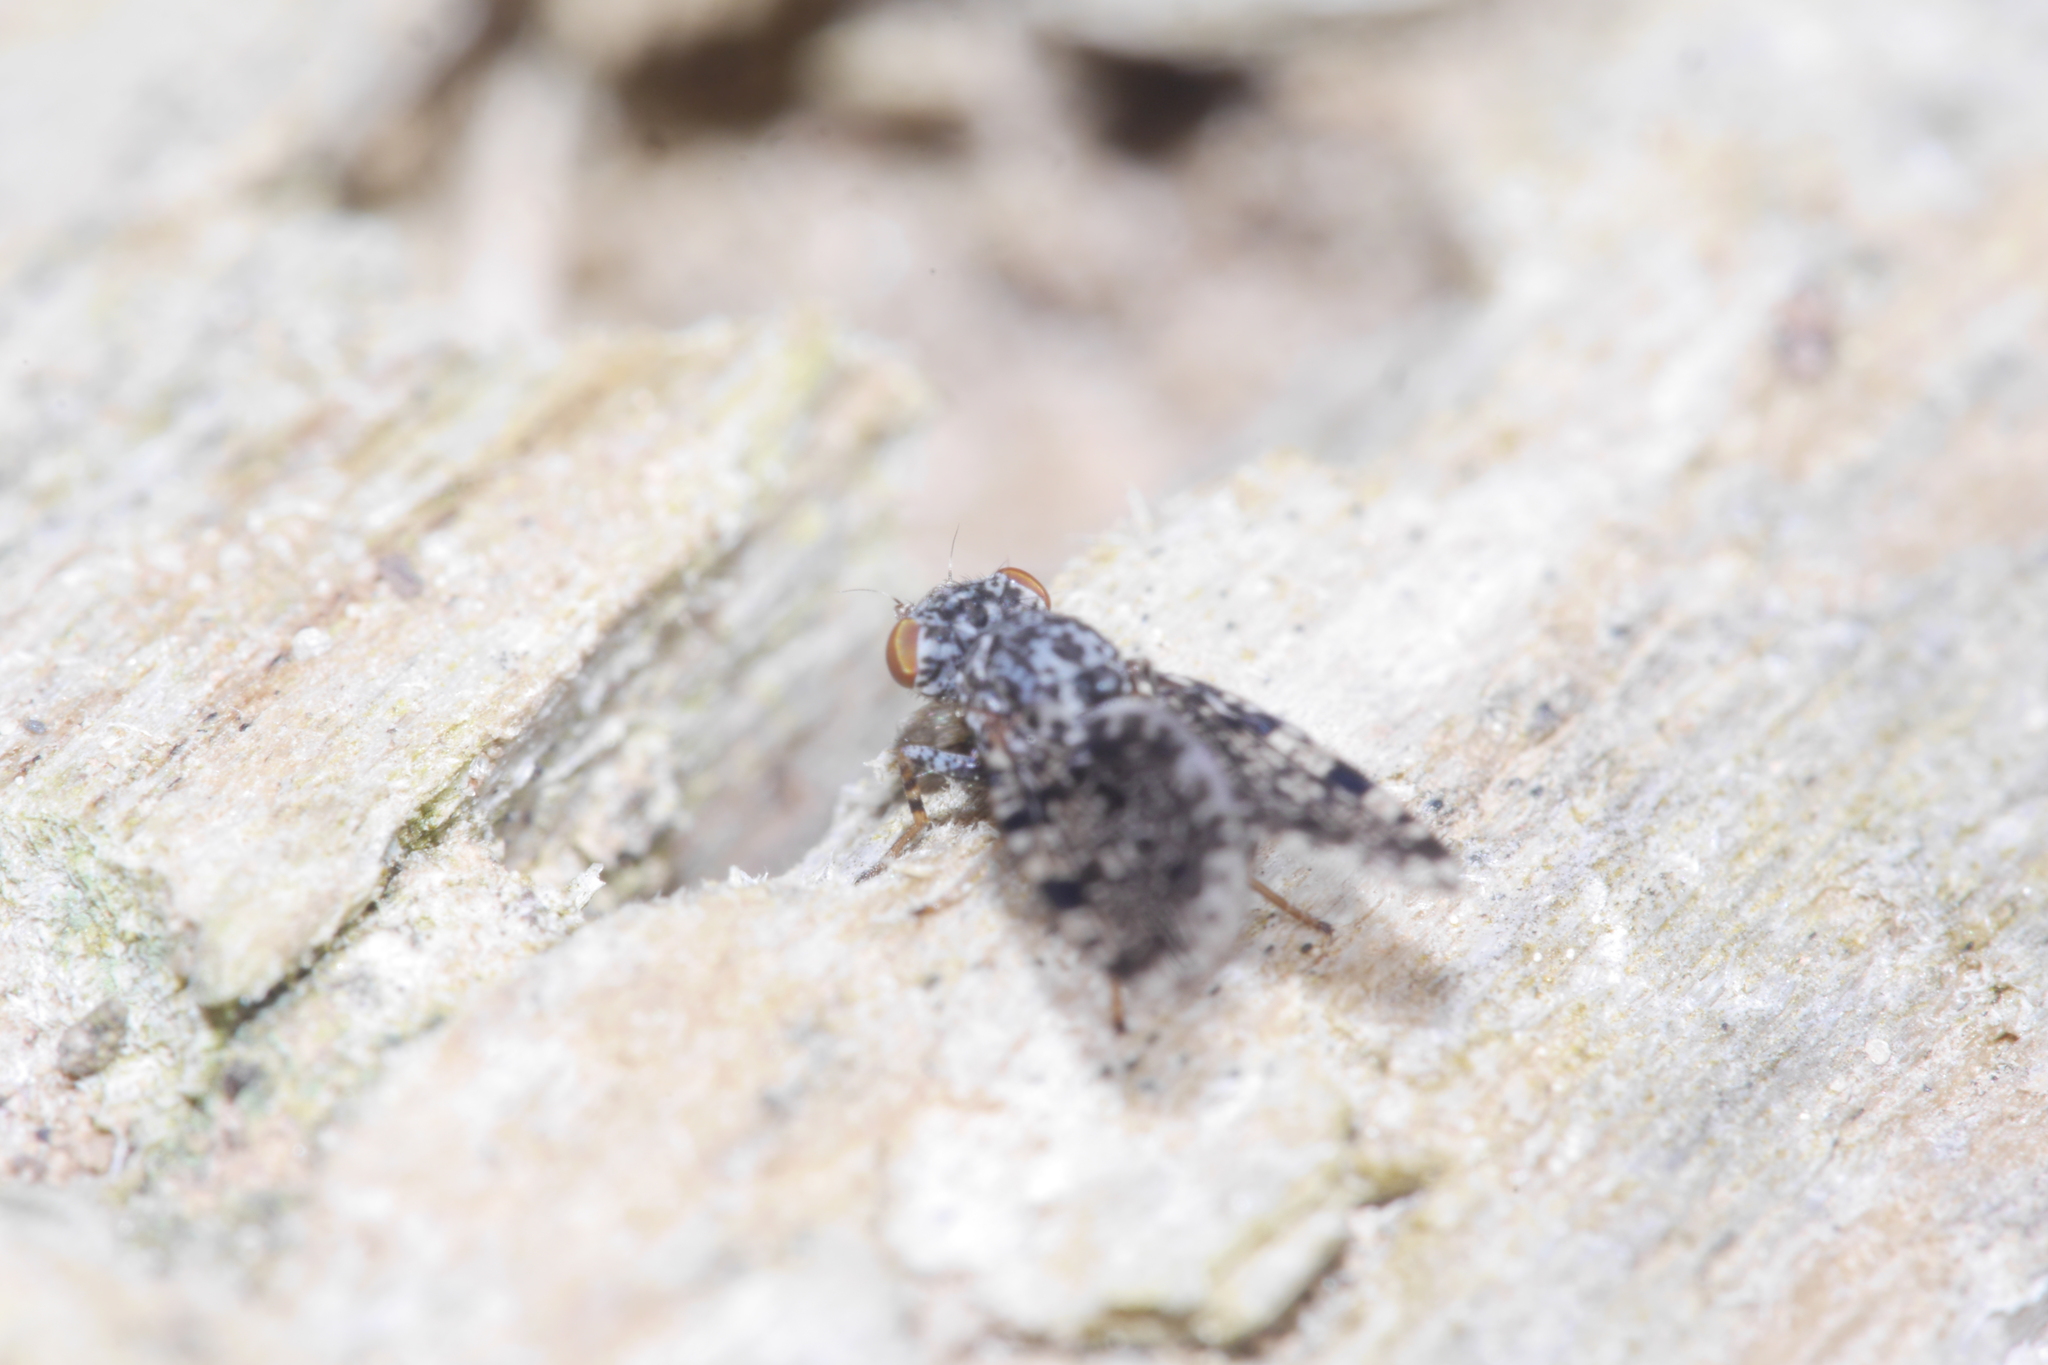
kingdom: Animalia
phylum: Arthropoda
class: Insecta
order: Diptera
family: Ulidiidae
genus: Callopistromyia
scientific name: Callopistromyia annulipes
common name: Peacock fly
